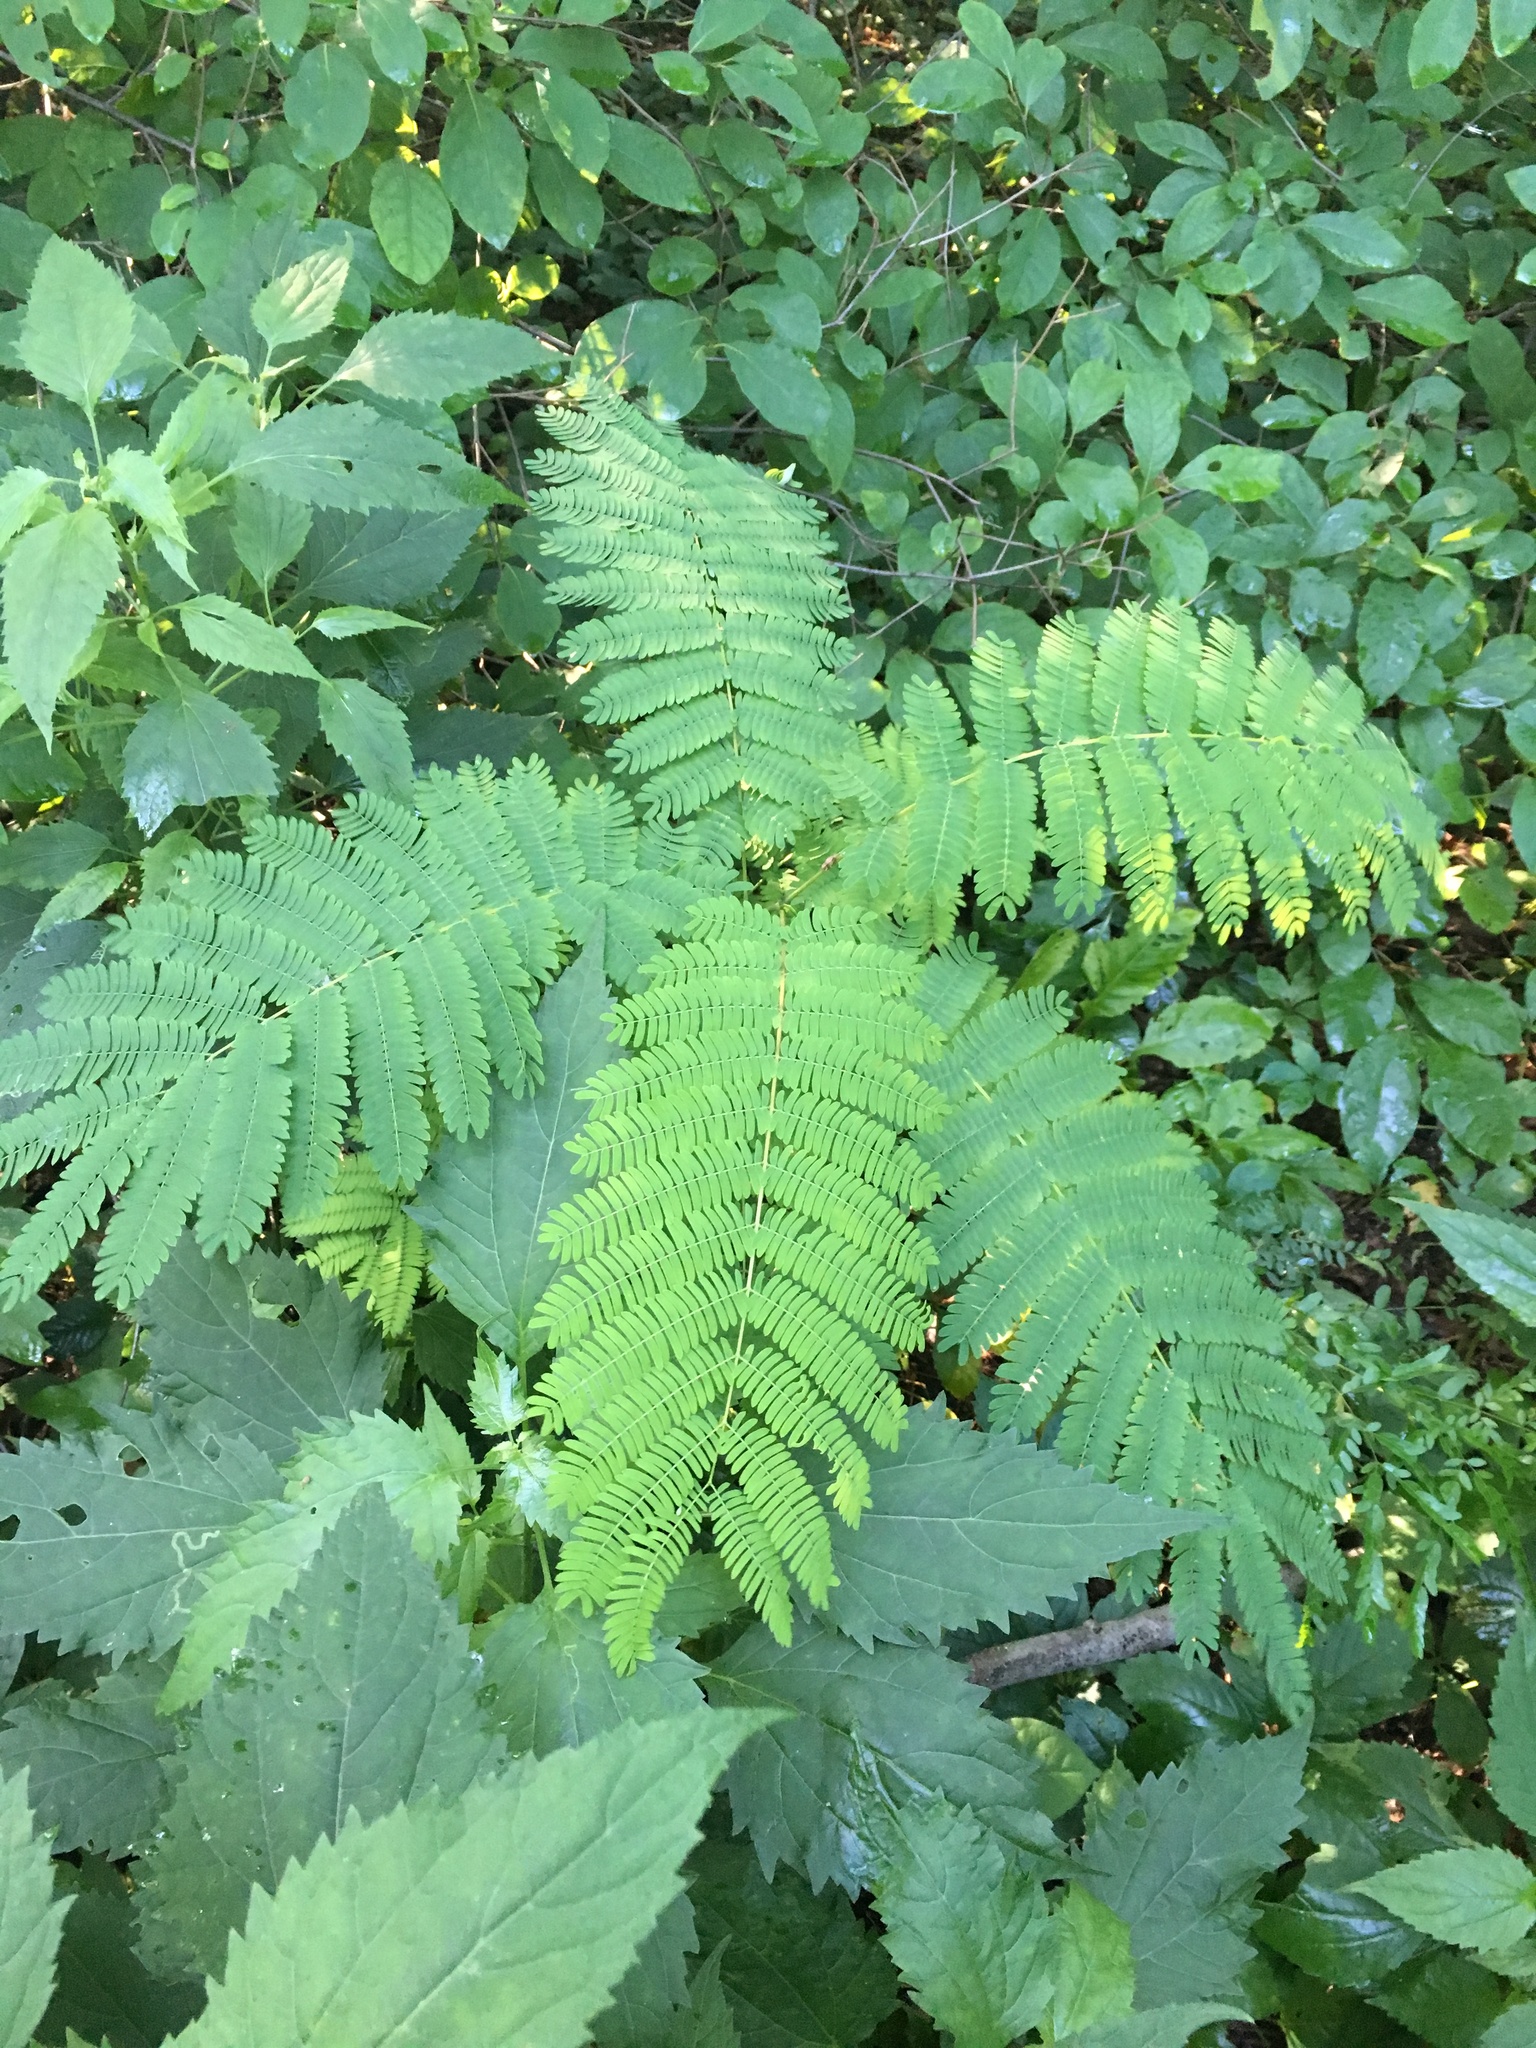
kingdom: Plantae
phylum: Tracheophyta
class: Magnoliopsida
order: Fabales
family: Fabaceae
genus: Albizia
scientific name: Albizia julibrissin
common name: Silktree
